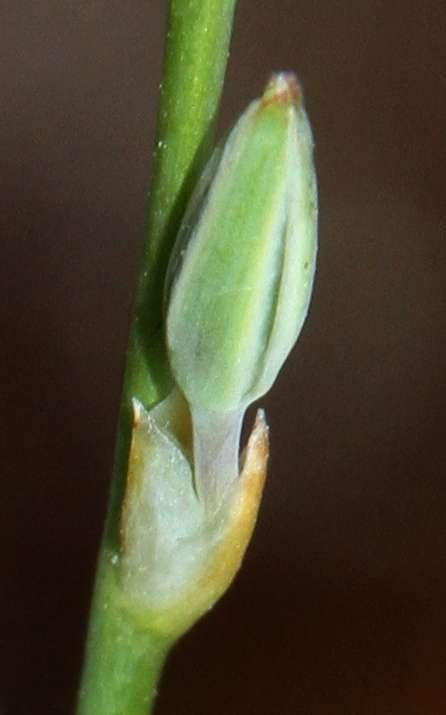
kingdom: Plantae
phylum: Tracheophyta
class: Liliopsida
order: Asparagales
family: Asparagaceae
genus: Thysanotus
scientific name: Thysanotus baueri
